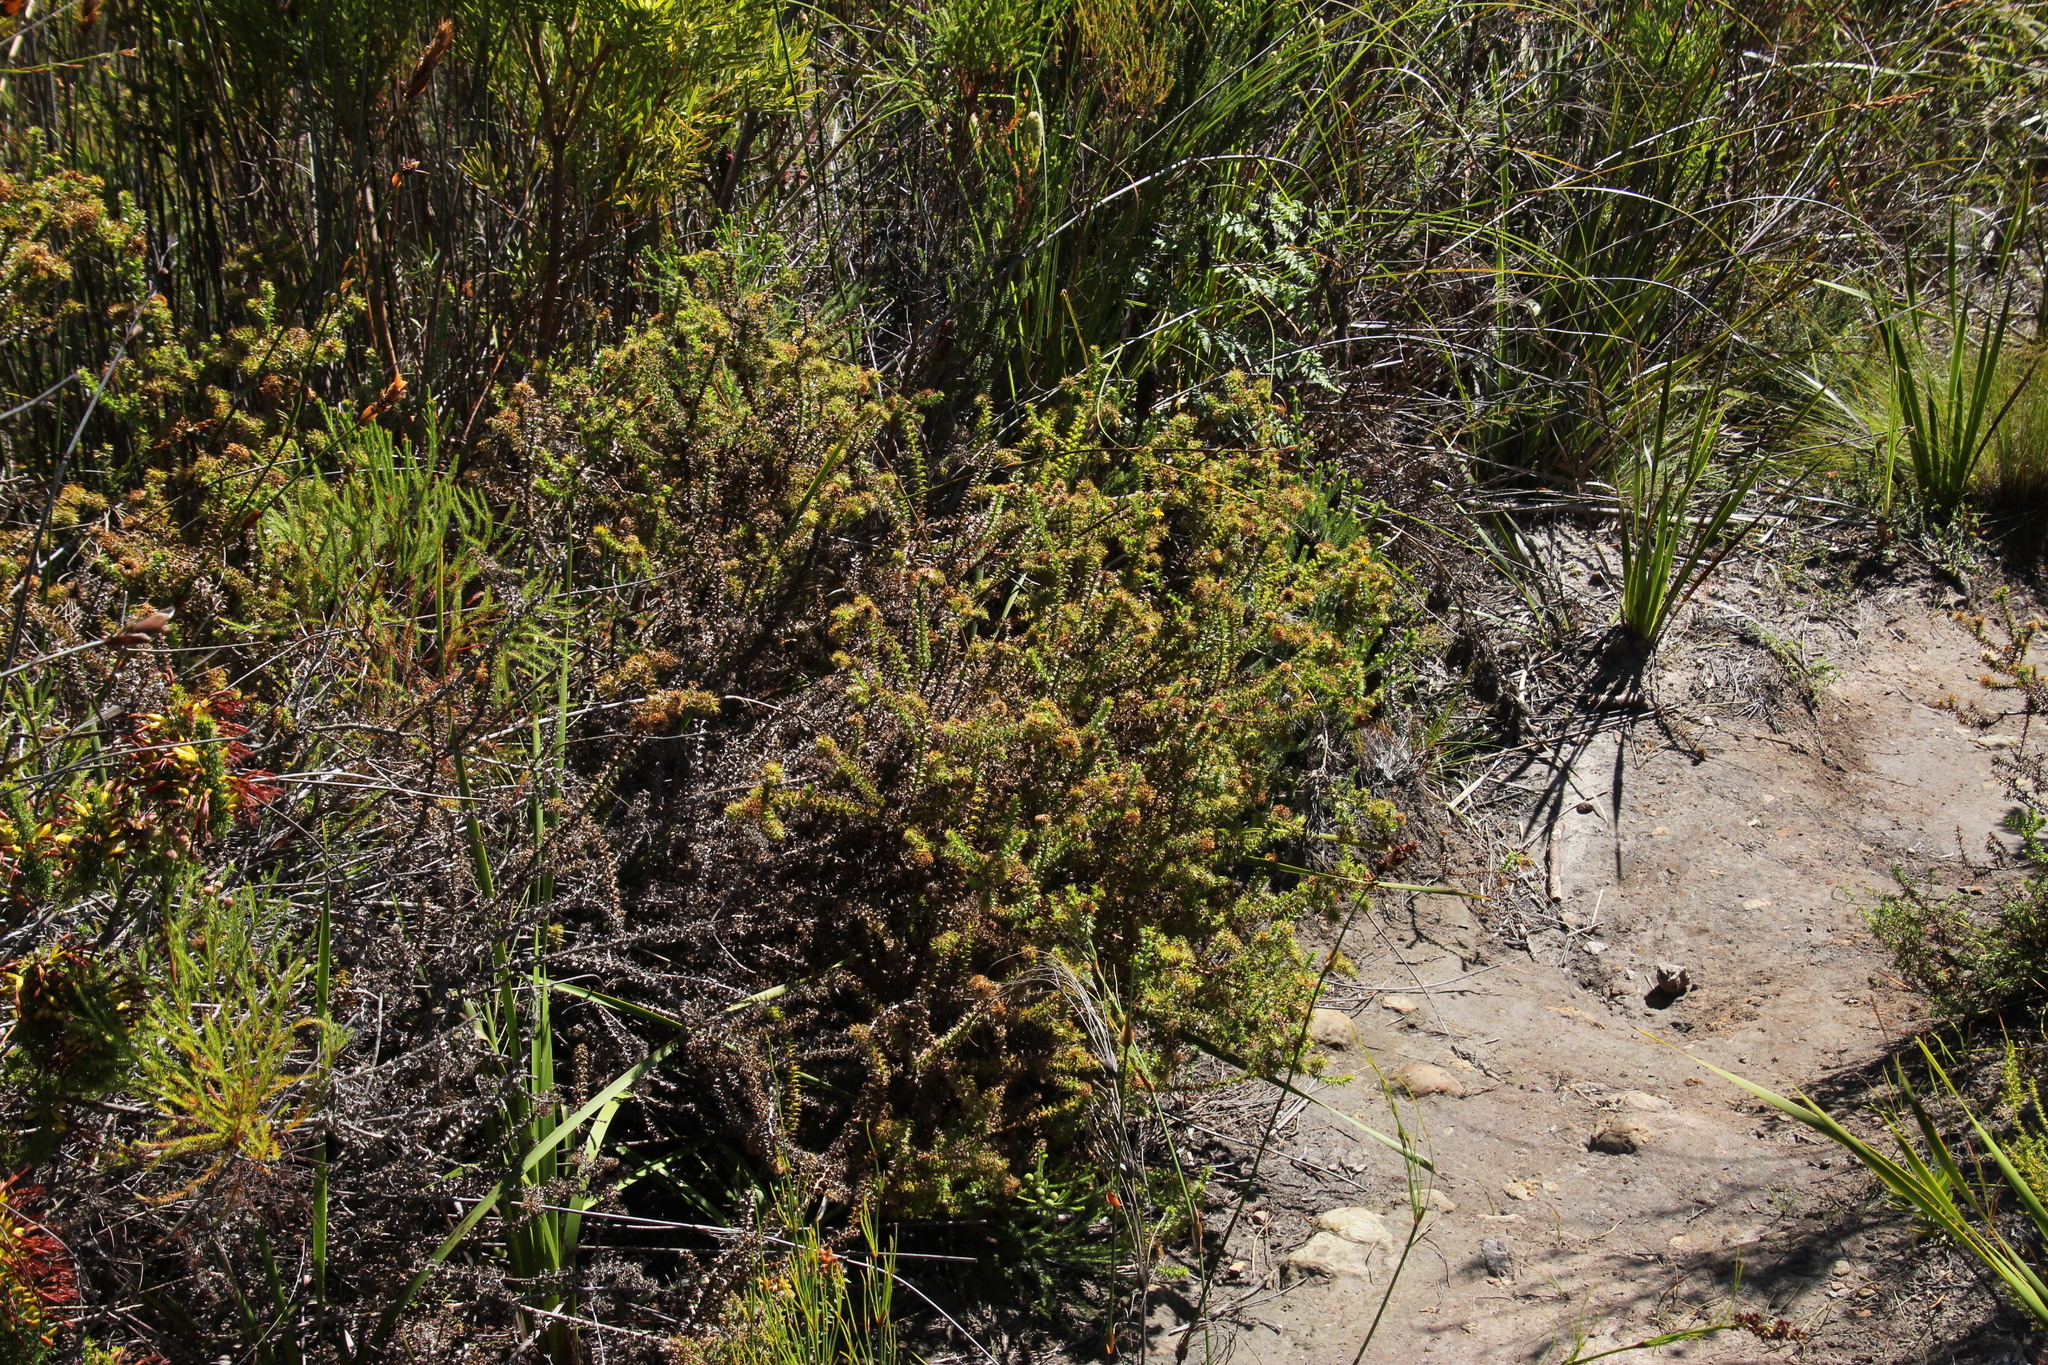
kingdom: Plantae
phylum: Tracheophyta
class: Magnoliopsida
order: Asterales
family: Asteraceae
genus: Cullumia
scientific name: Cullumia setosa
